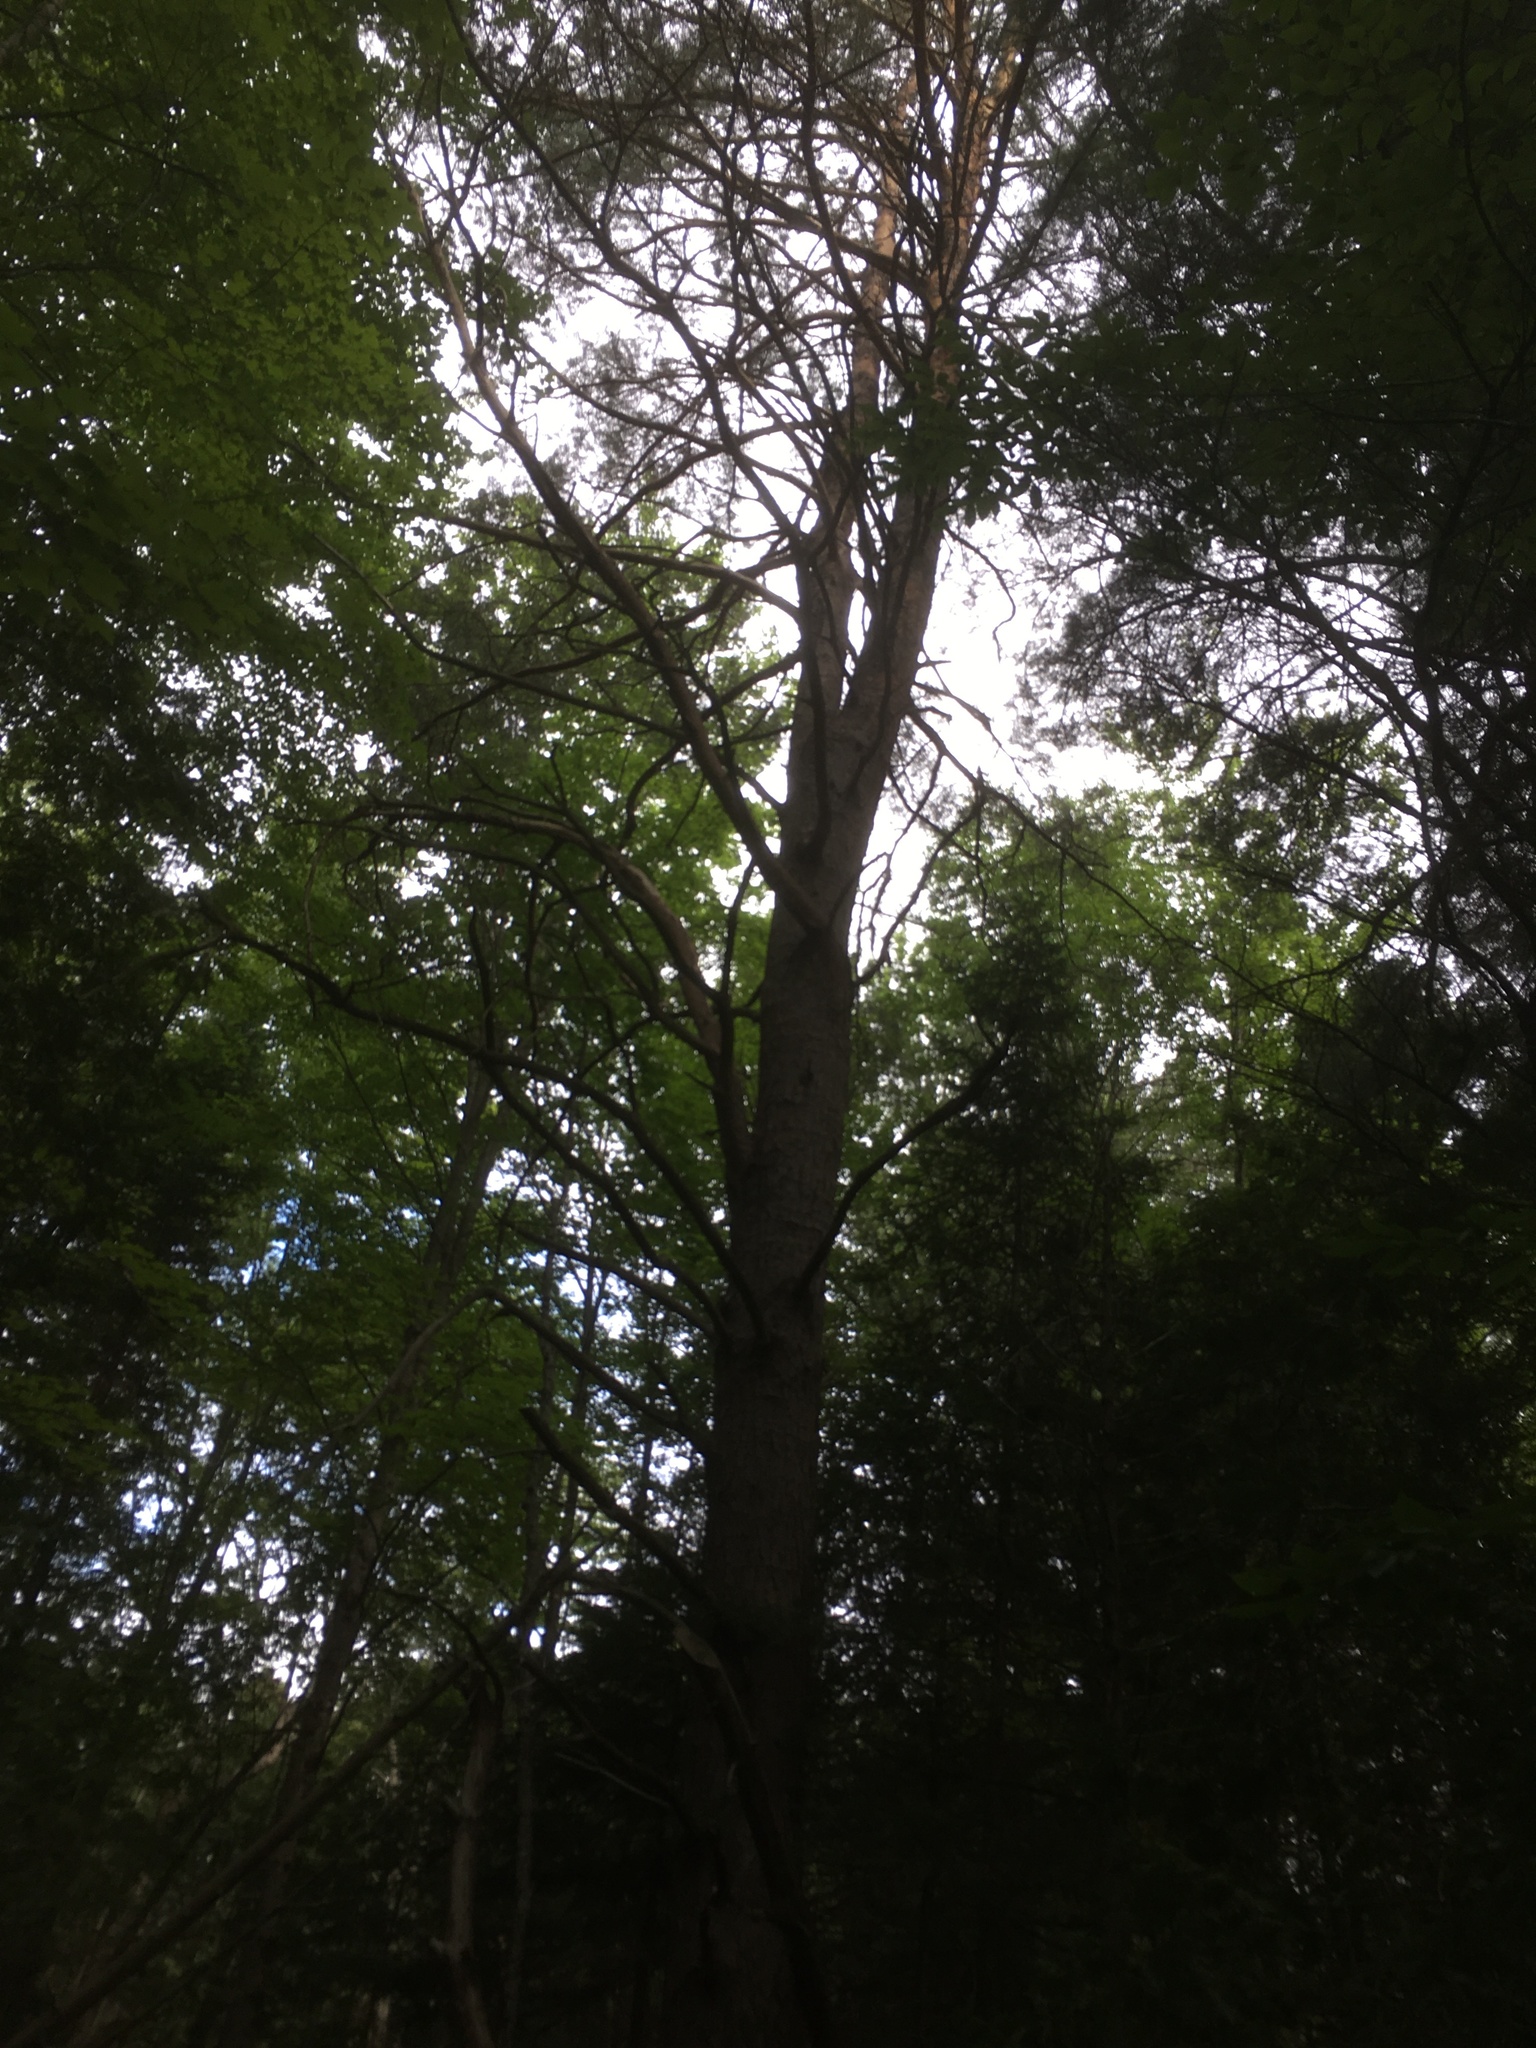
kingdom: Plantae
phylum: Tracheophyta
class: Pinopsida
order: Pinales
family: Pinaceae
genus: Pinus
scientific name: Pinus sylvestris
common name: Scots pine
